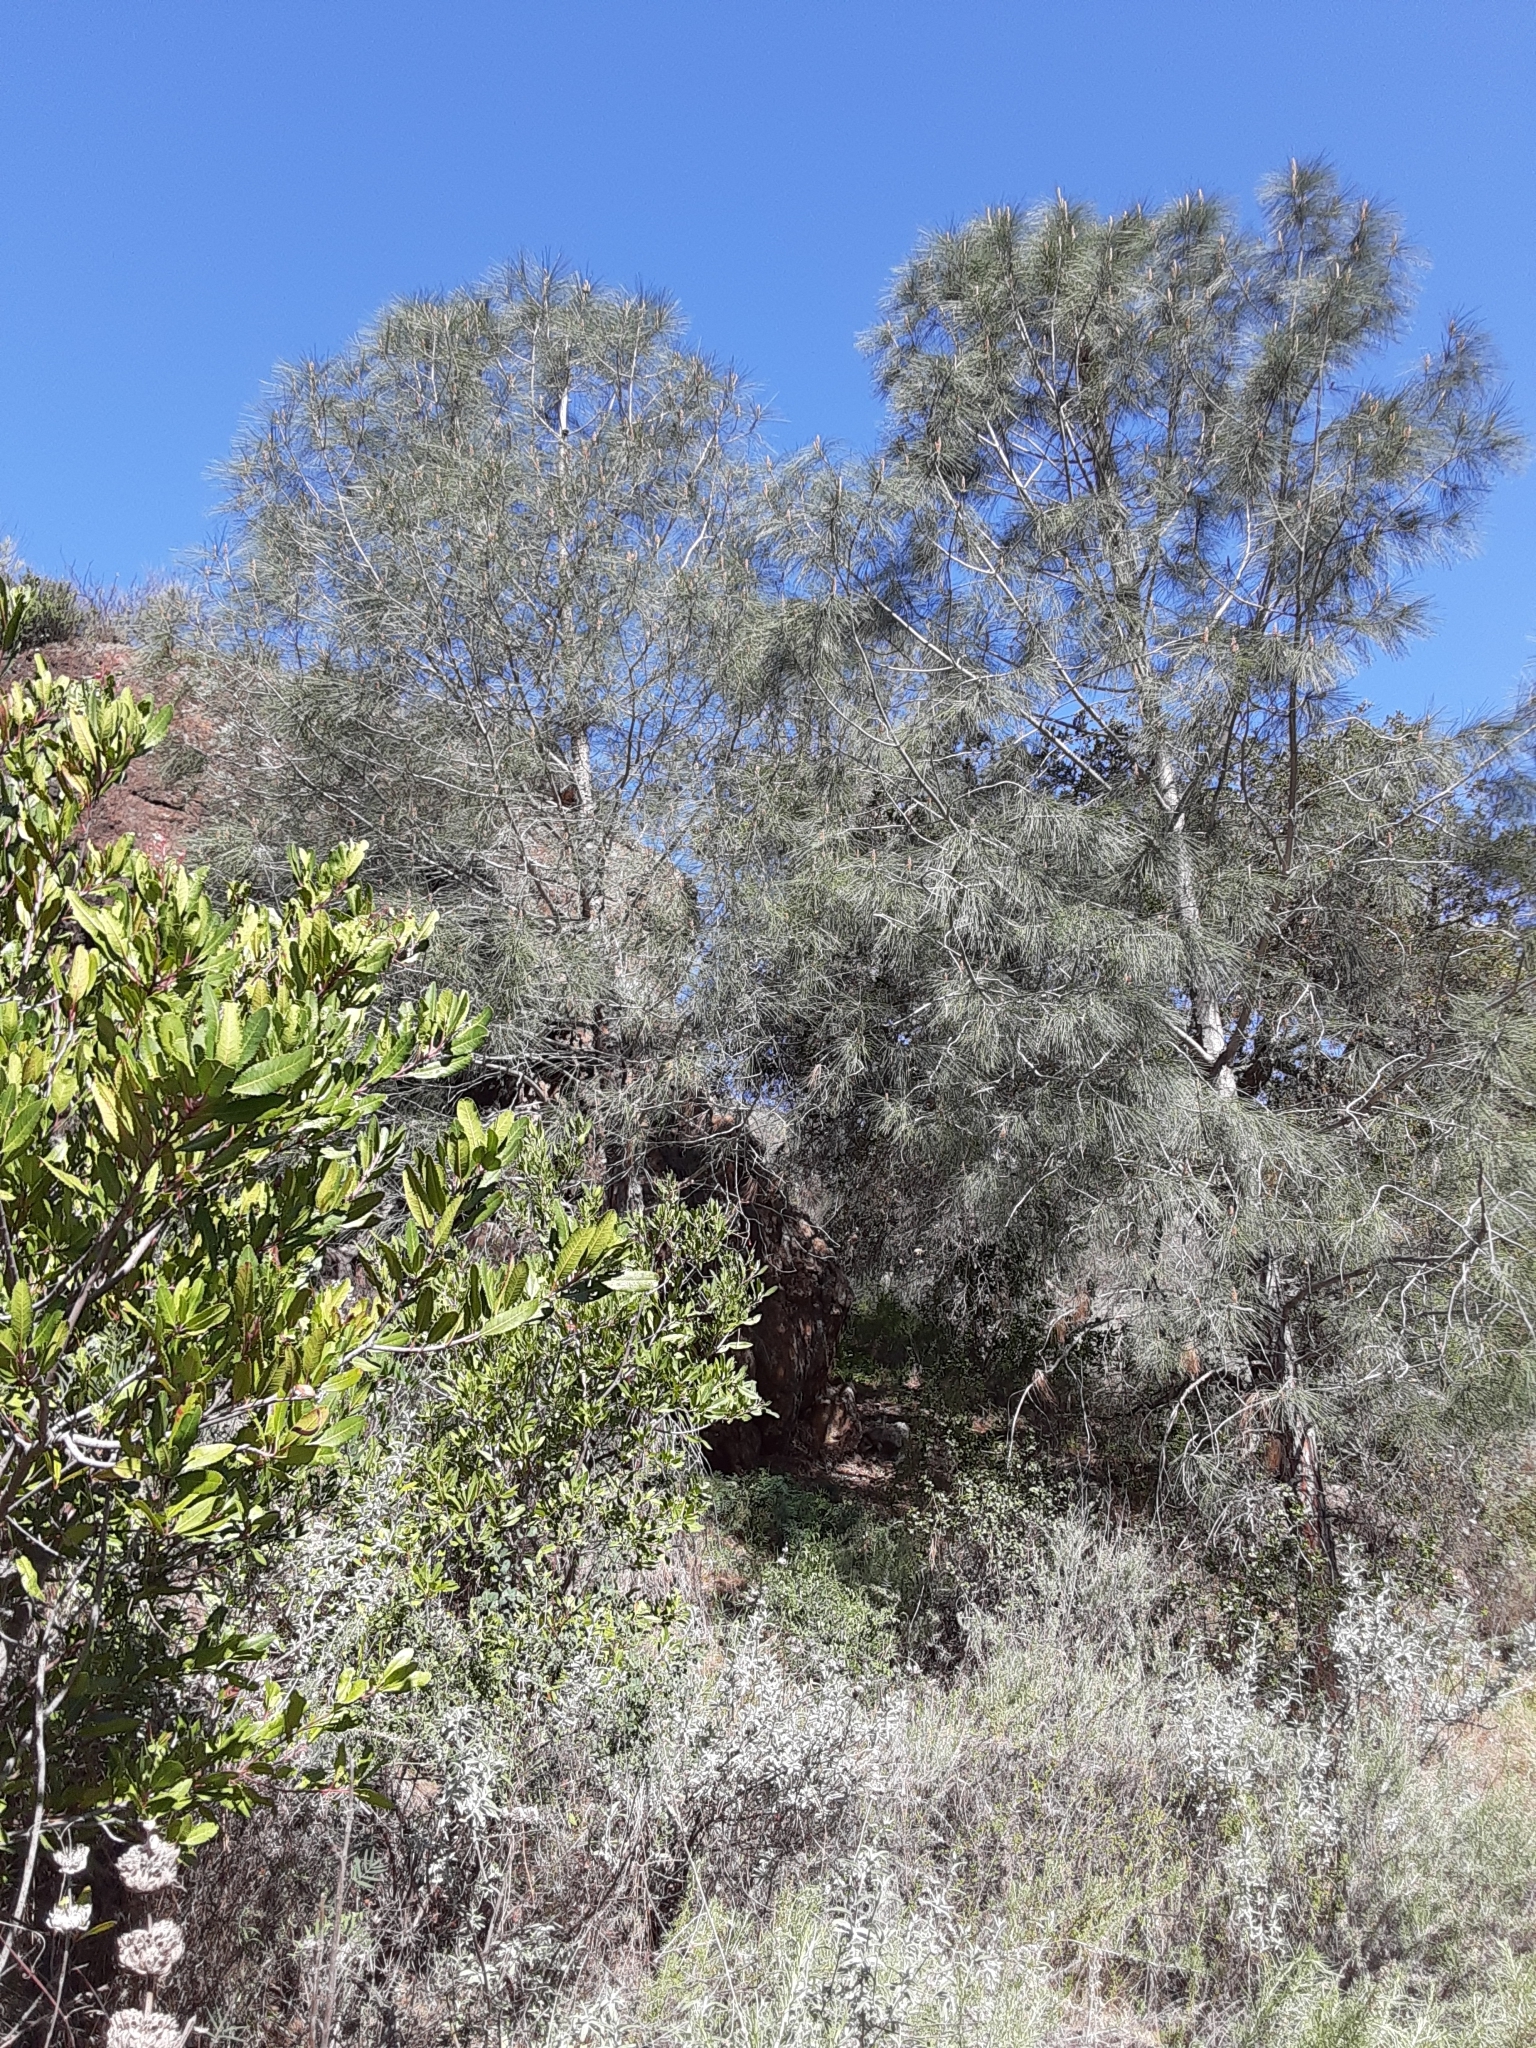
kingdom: Plantae
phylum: Tracheophyta
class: Pinopsida
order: Pinales
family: Pinaceae
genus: Pinus
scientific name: Pinus sabiniana
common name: Bull pine
